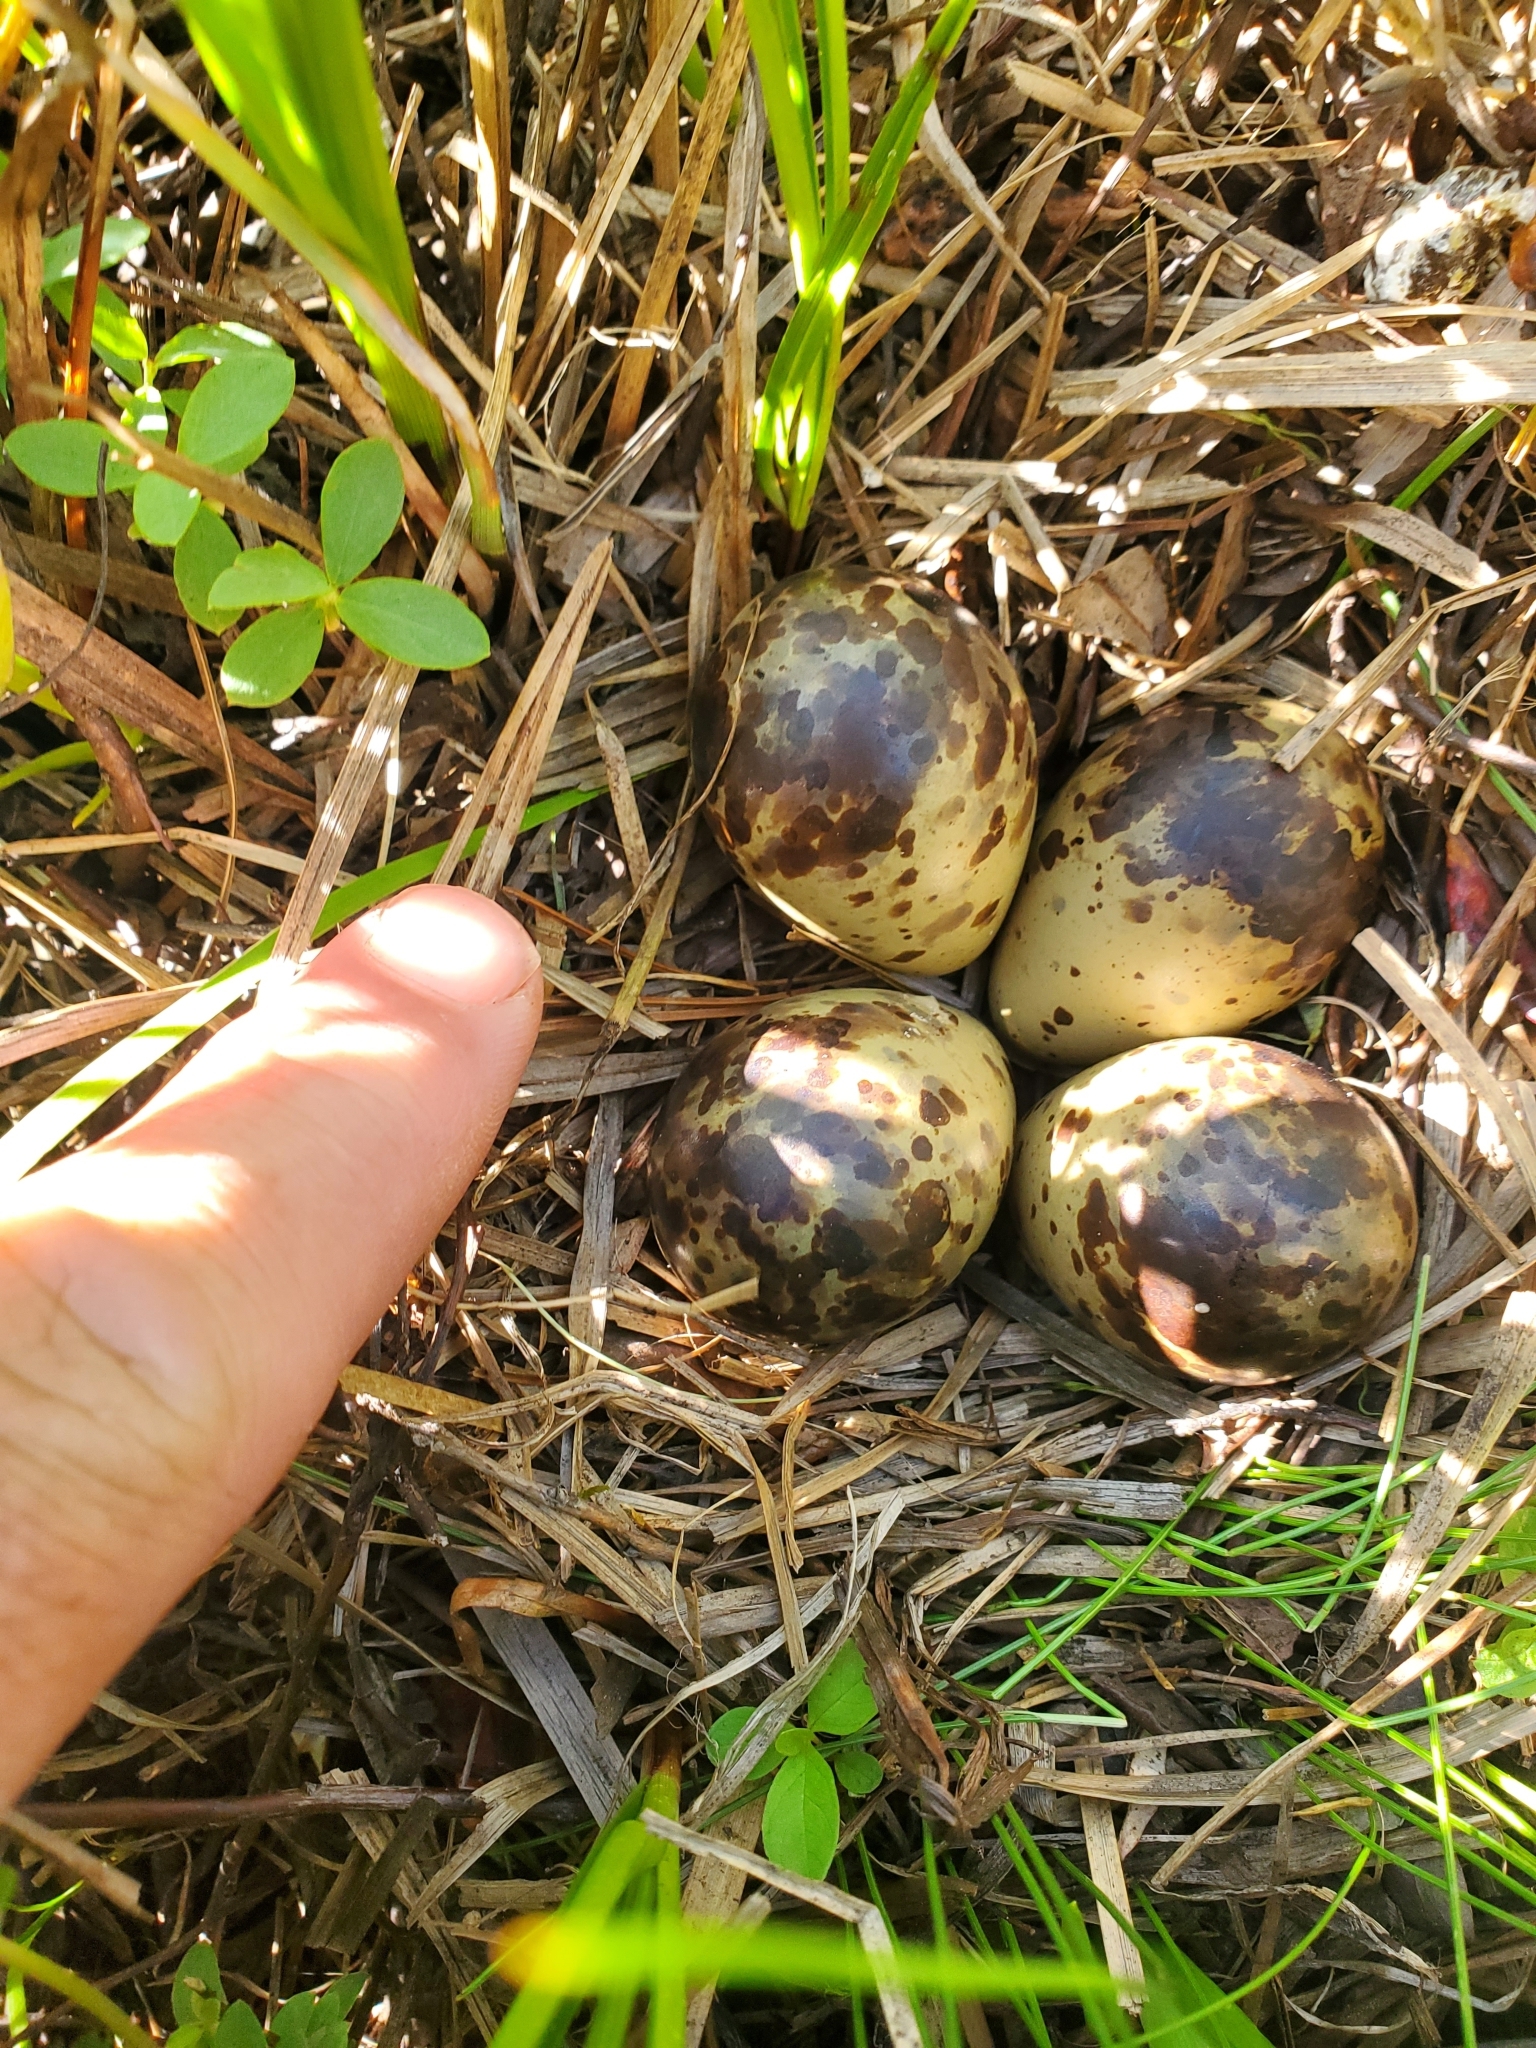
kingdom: Animalia
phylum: Chordata
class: Aves
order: Charadriiformes
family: Scolopacidae
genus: Gallinago
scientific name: Gallinago delicata
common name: Wilson's snipe
